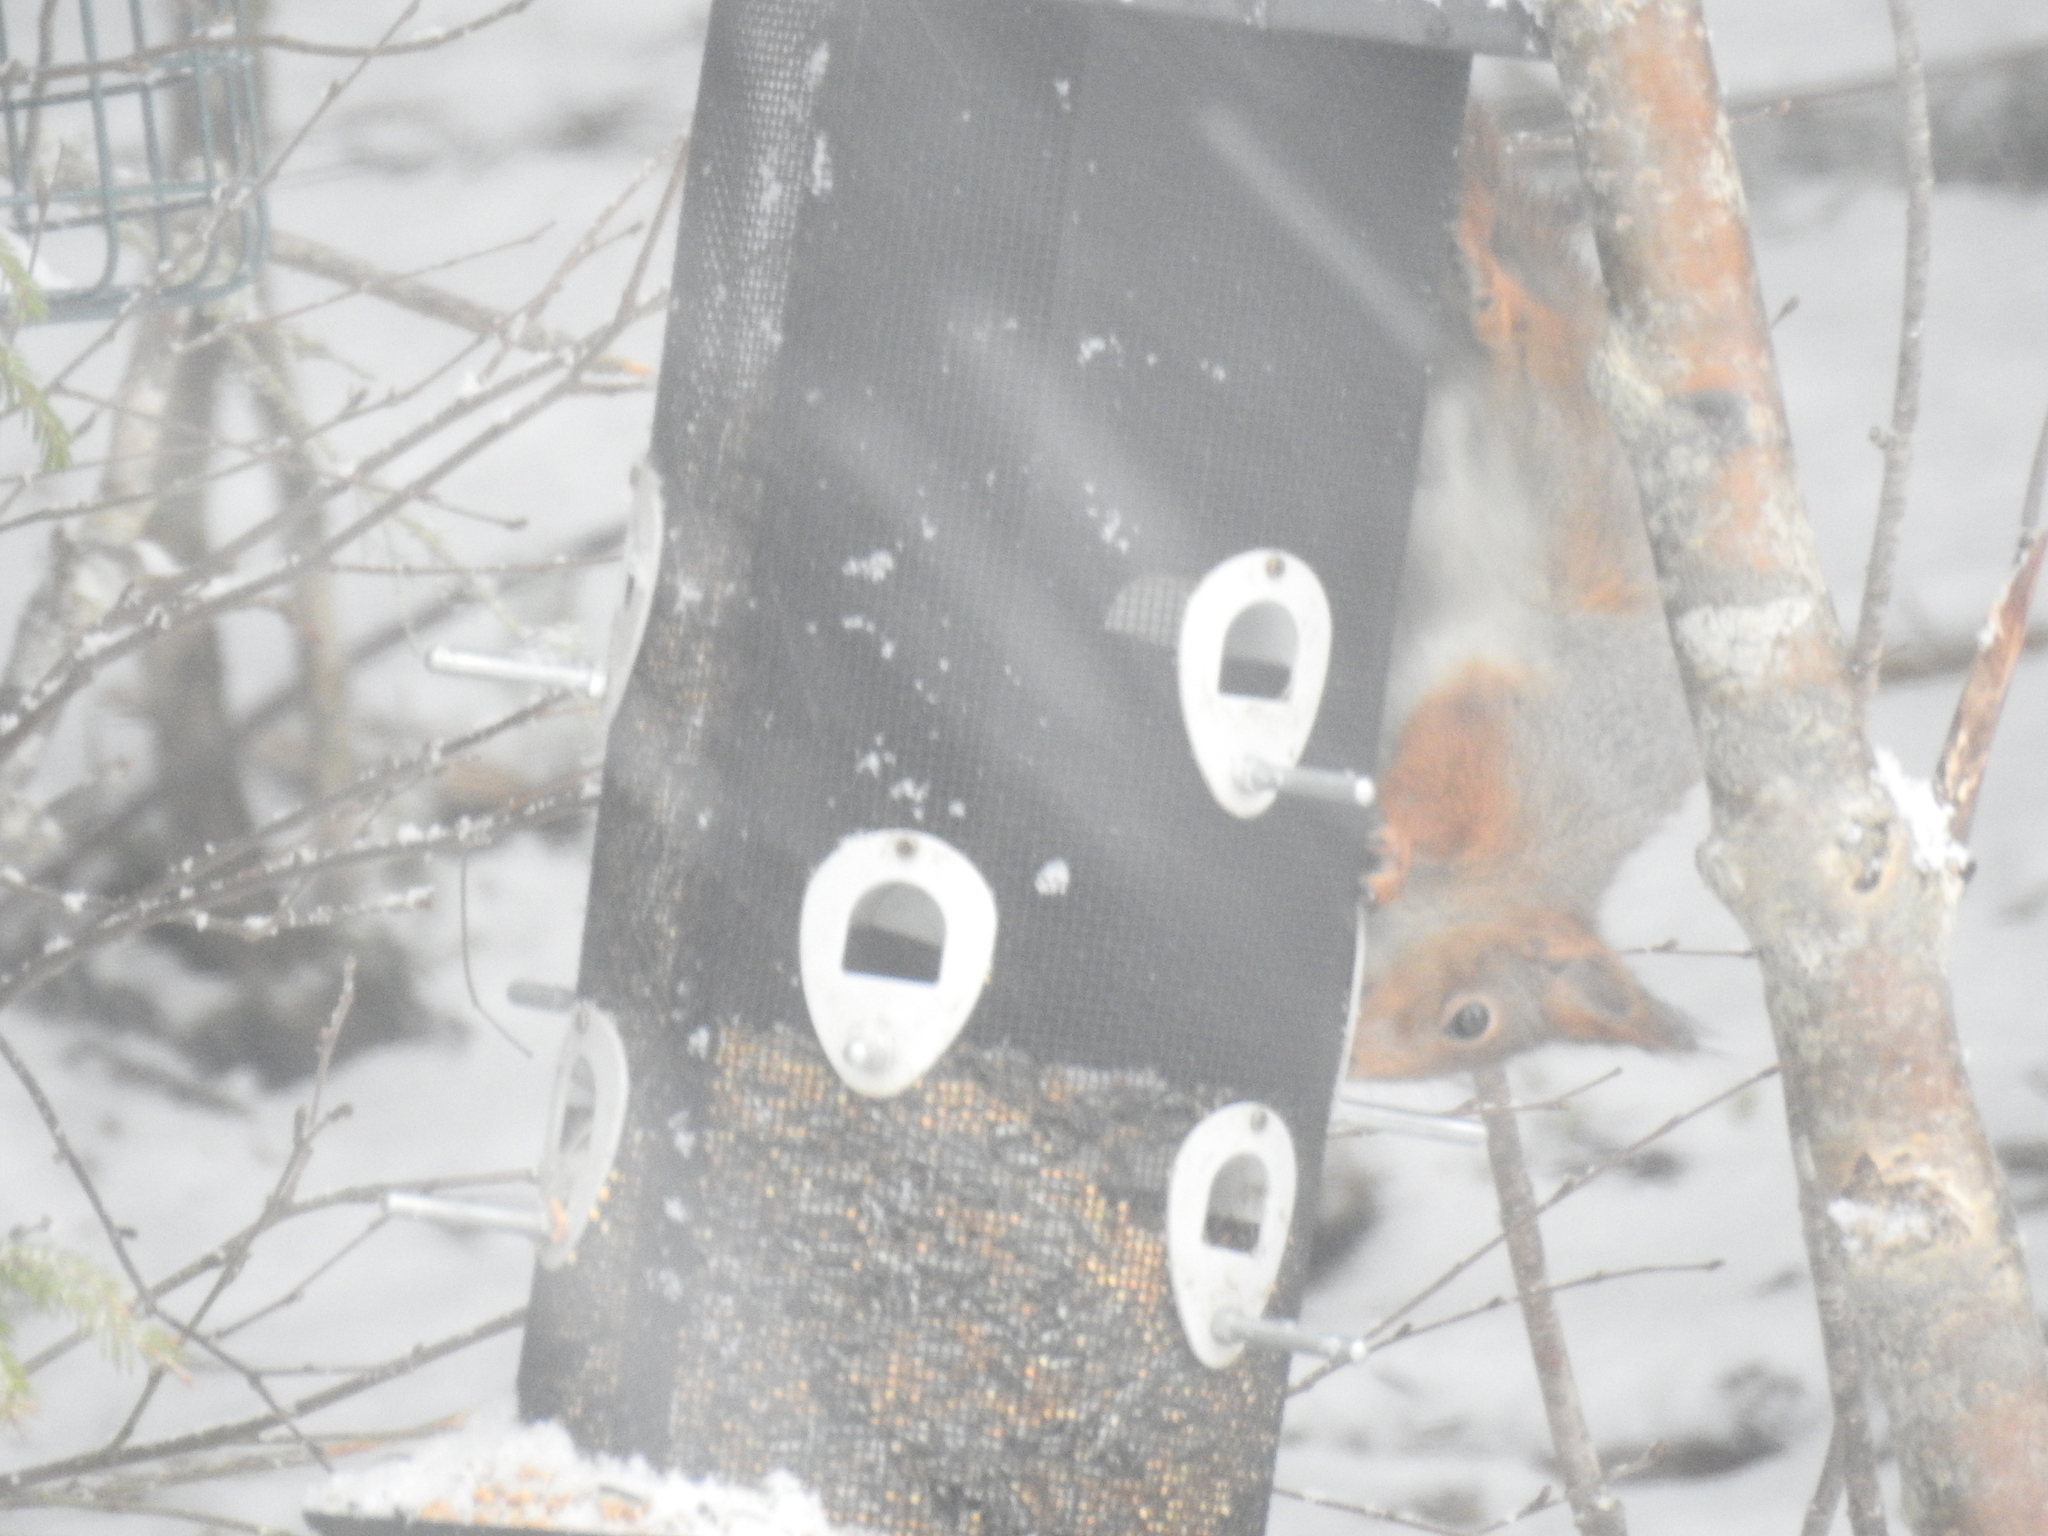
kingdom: Animalia
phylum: Chordata
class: Mammalia
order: Rodentia
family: Sciuridae
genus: Sciurus
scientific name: Sciurus vulgaris
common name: Eurasian red squirrel
